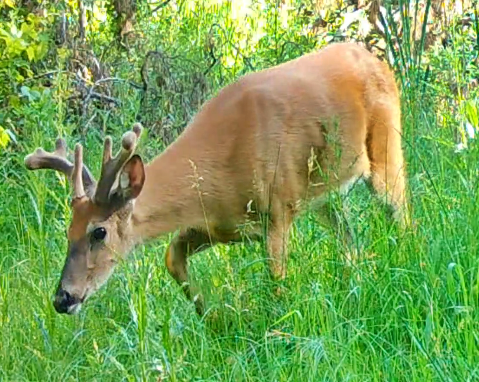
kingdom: Animalia
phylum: Chordata
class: Mammalia
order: Artiodactyla
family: Cervidae
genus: Odocoileus
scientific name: Odocoileus virginianus
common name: White-tailed deer
